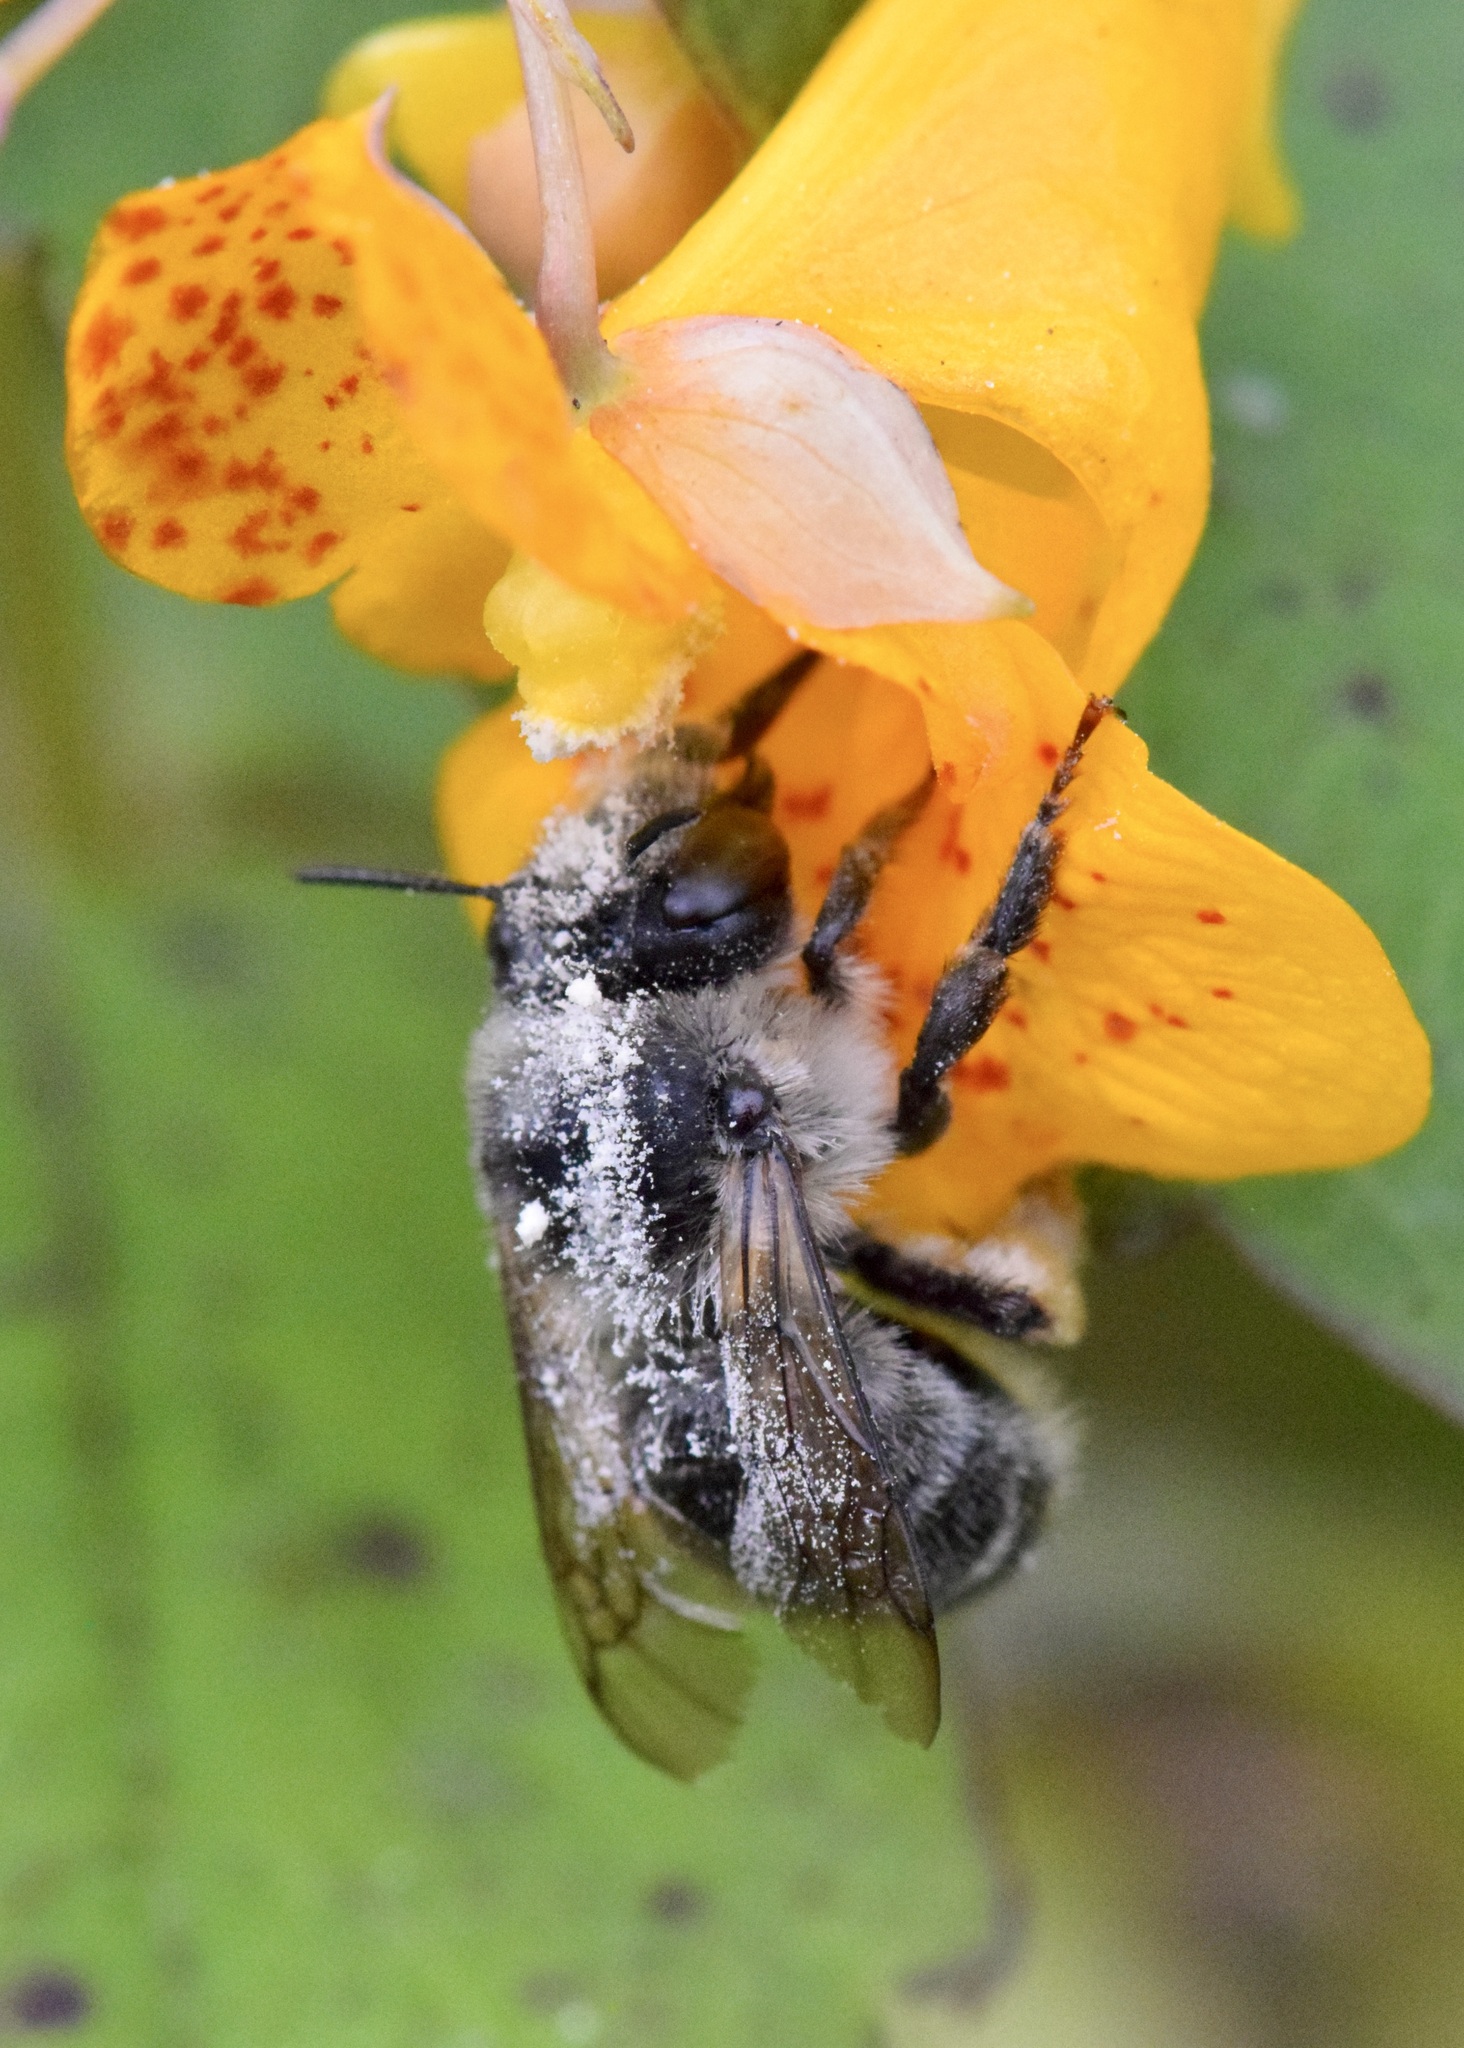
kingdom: Animalia
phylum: Arthropoda
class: Insecta
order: Hymenoptera
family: Apidae
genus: Anthophora
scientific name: Anthophora terminalis
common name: Orange-tipped wood-digger bee
